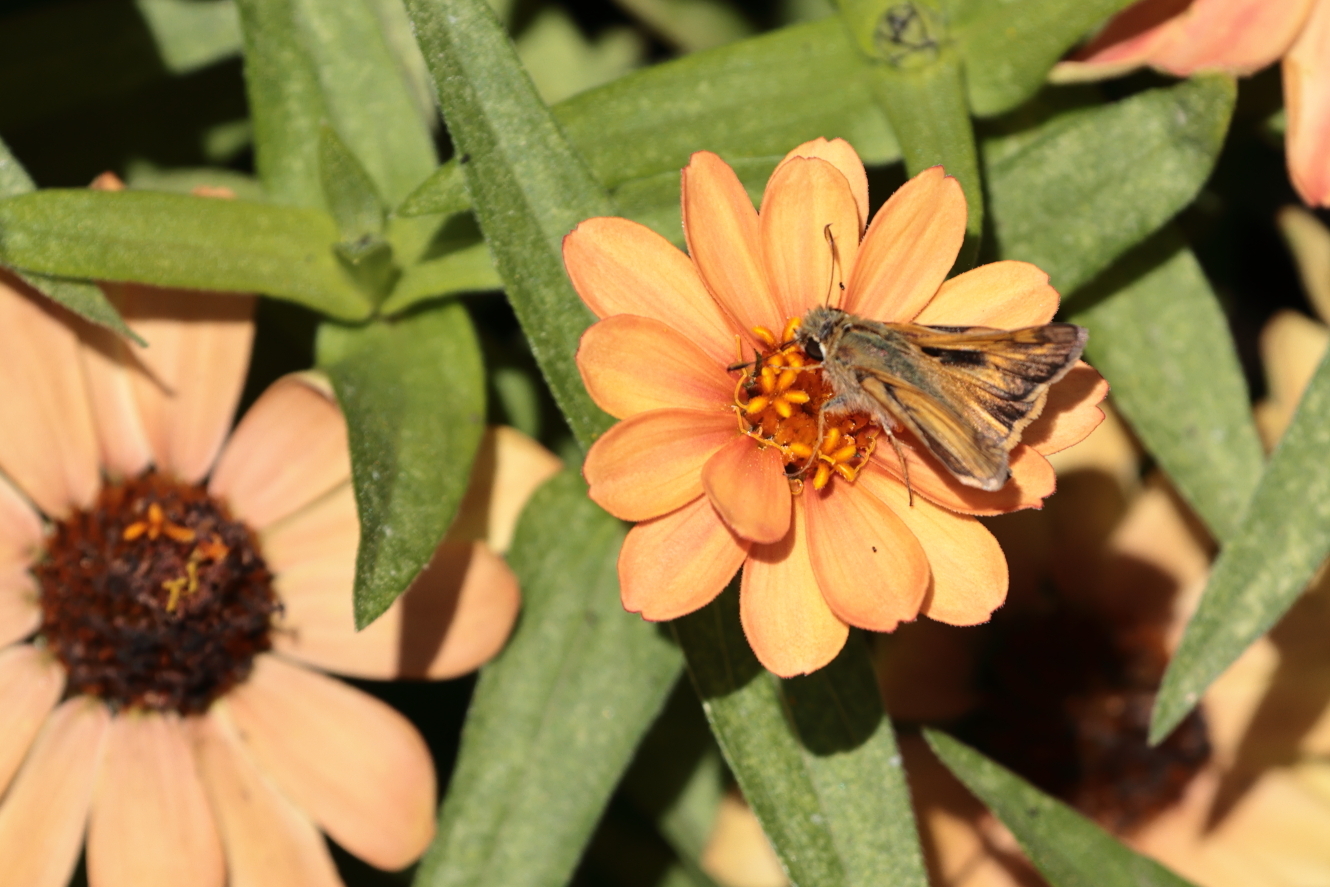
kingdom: Animalia
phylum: Arthropoda
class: Insecta
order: Lepidoptera
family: Hesperiidae
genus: Atalopedes
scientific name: Atalopedes
